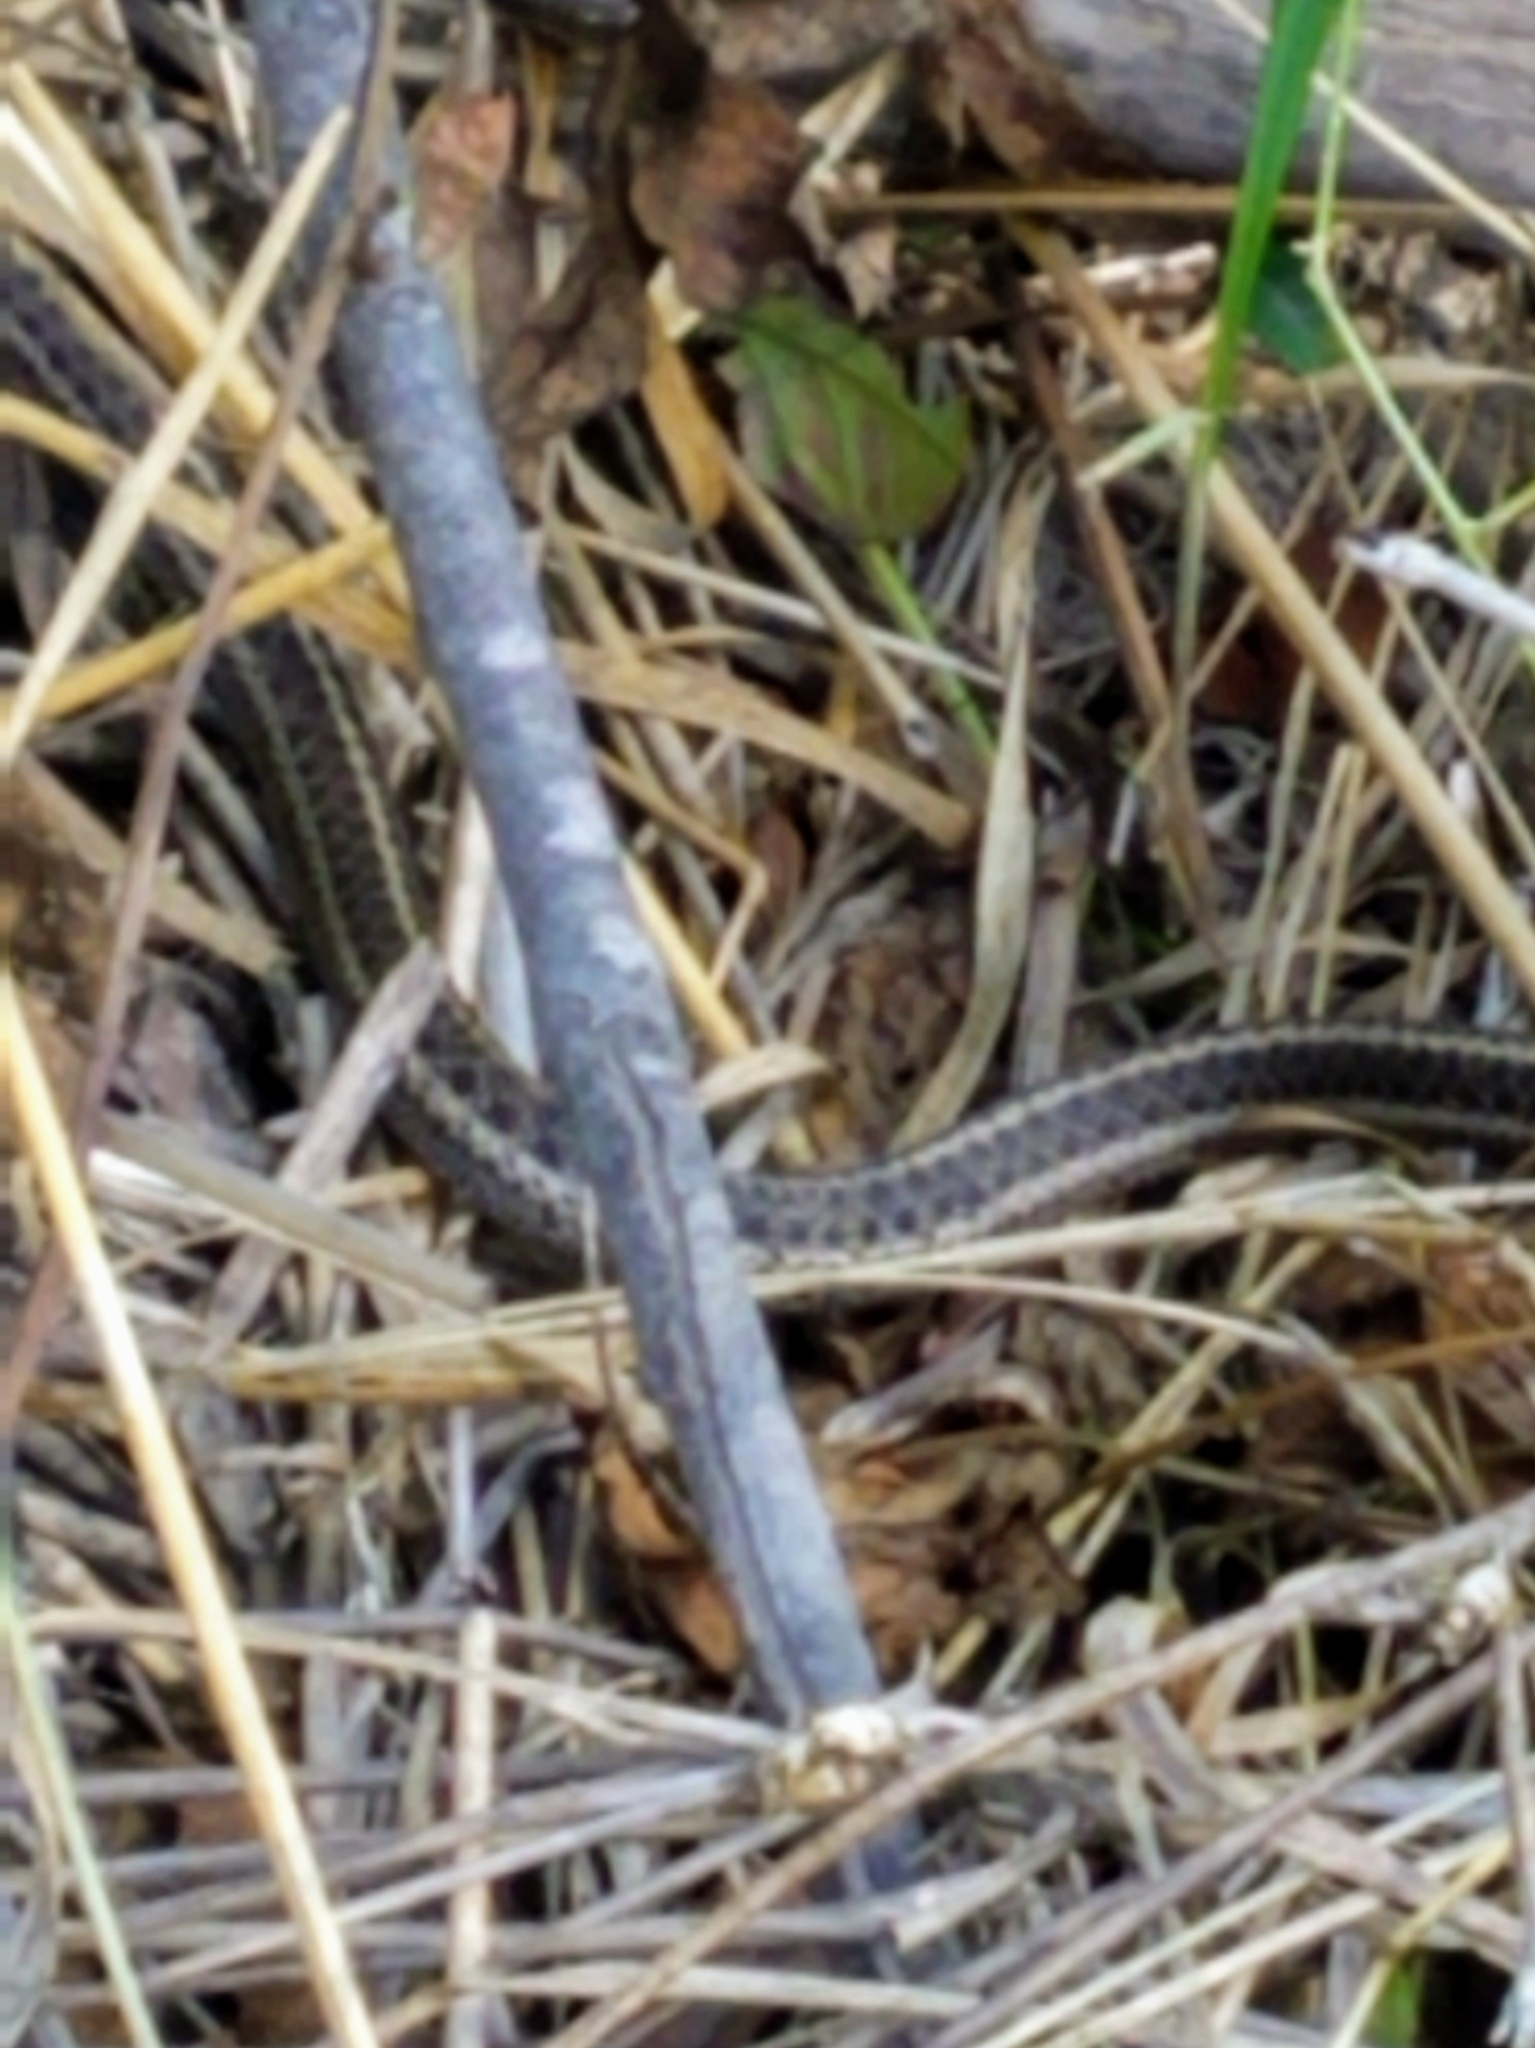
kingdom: Animalia
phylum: Chordata
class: Squamata
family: Colubridae
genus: Thamnophis
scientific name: Thamnophis elegans
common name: Western terrestrial garter snake
